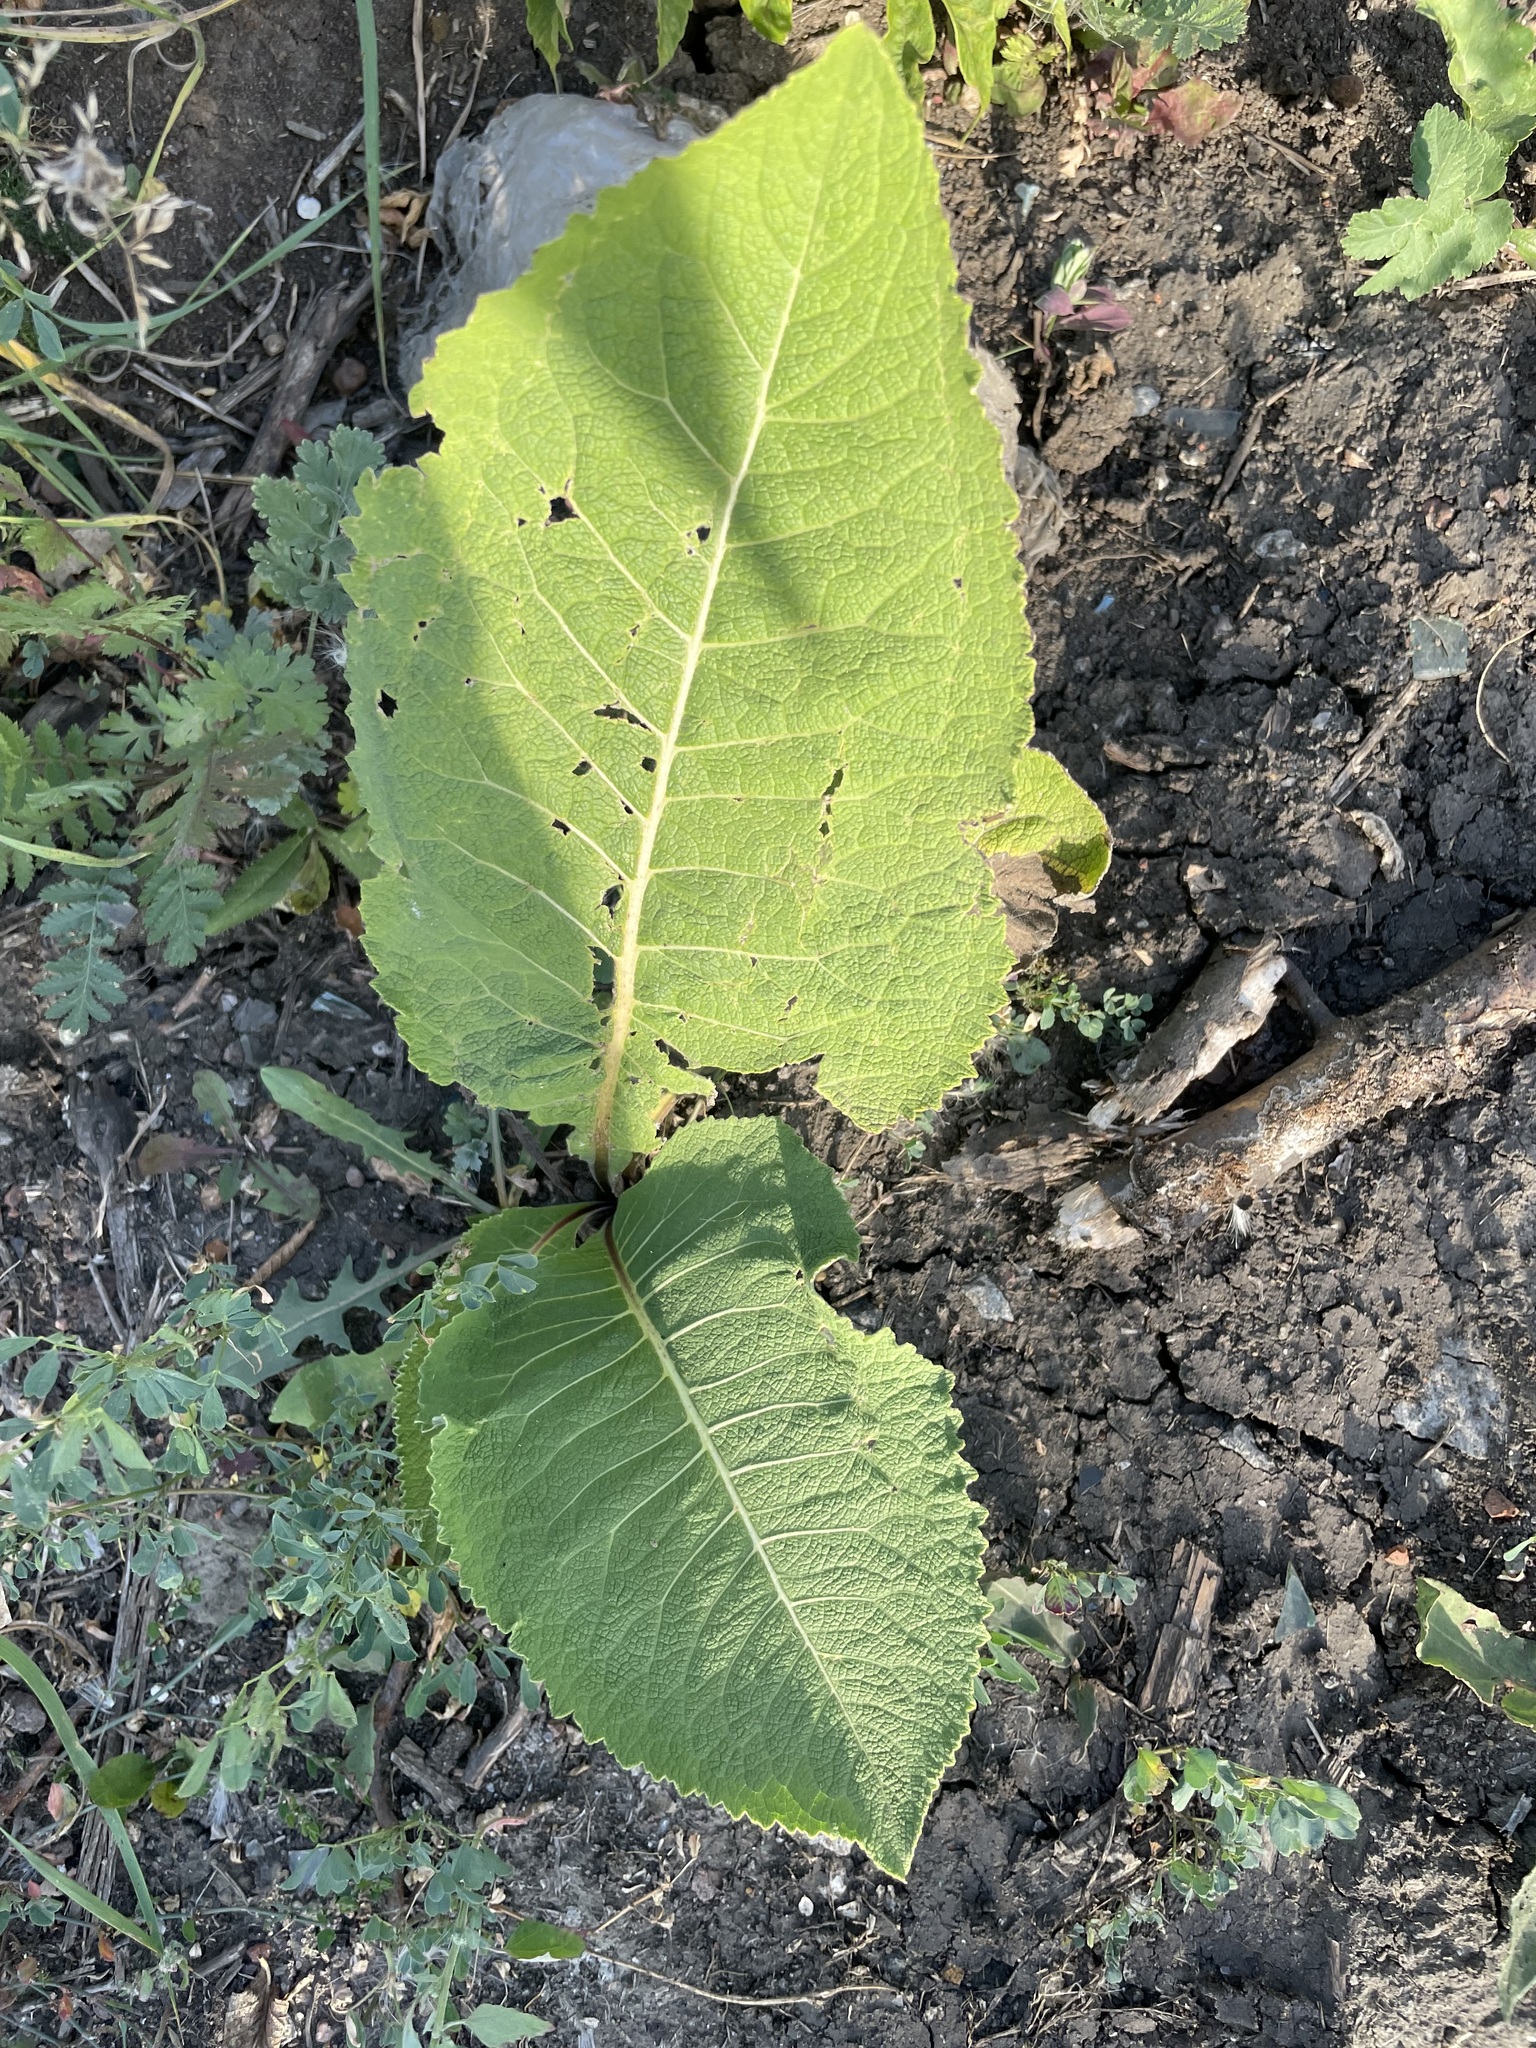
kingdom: Plantae
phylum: Tracheophyta
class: Magnoliopsida
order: Asterales
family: Asteraceae
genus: Inula
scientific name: Inula helenium
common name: Elecampane
